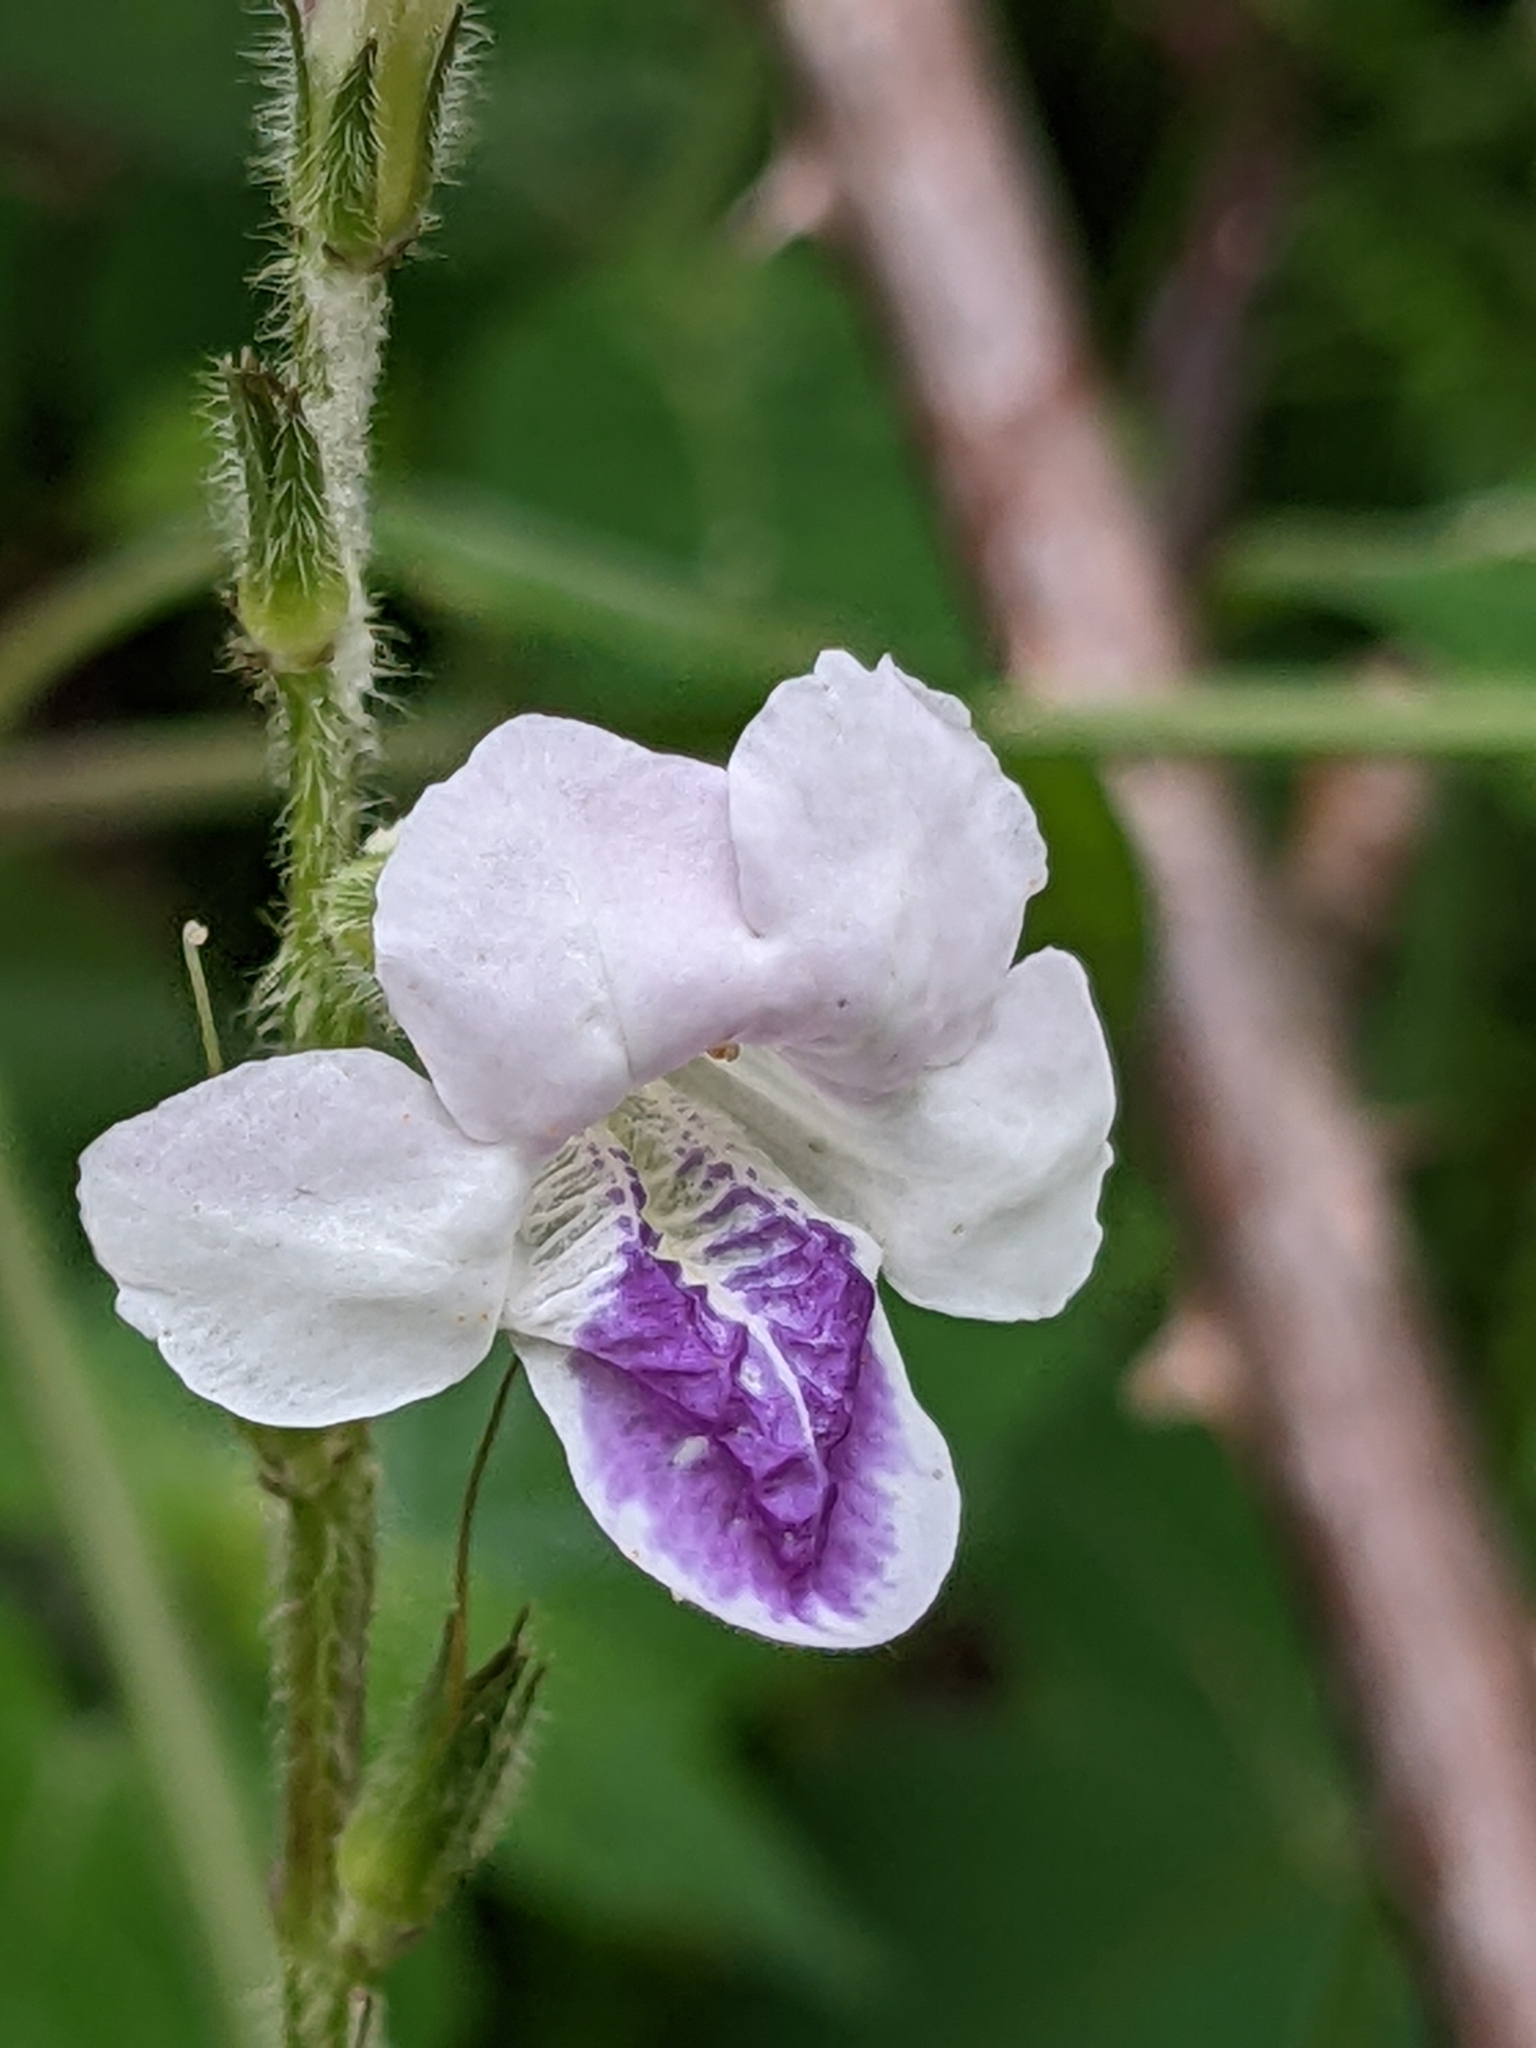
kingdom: Plantae
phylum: Tracheophyta
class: Magnoliopsida
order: Lamiales
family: Acanthaceae
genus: Asystasia
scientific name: Asystasia intrusa
